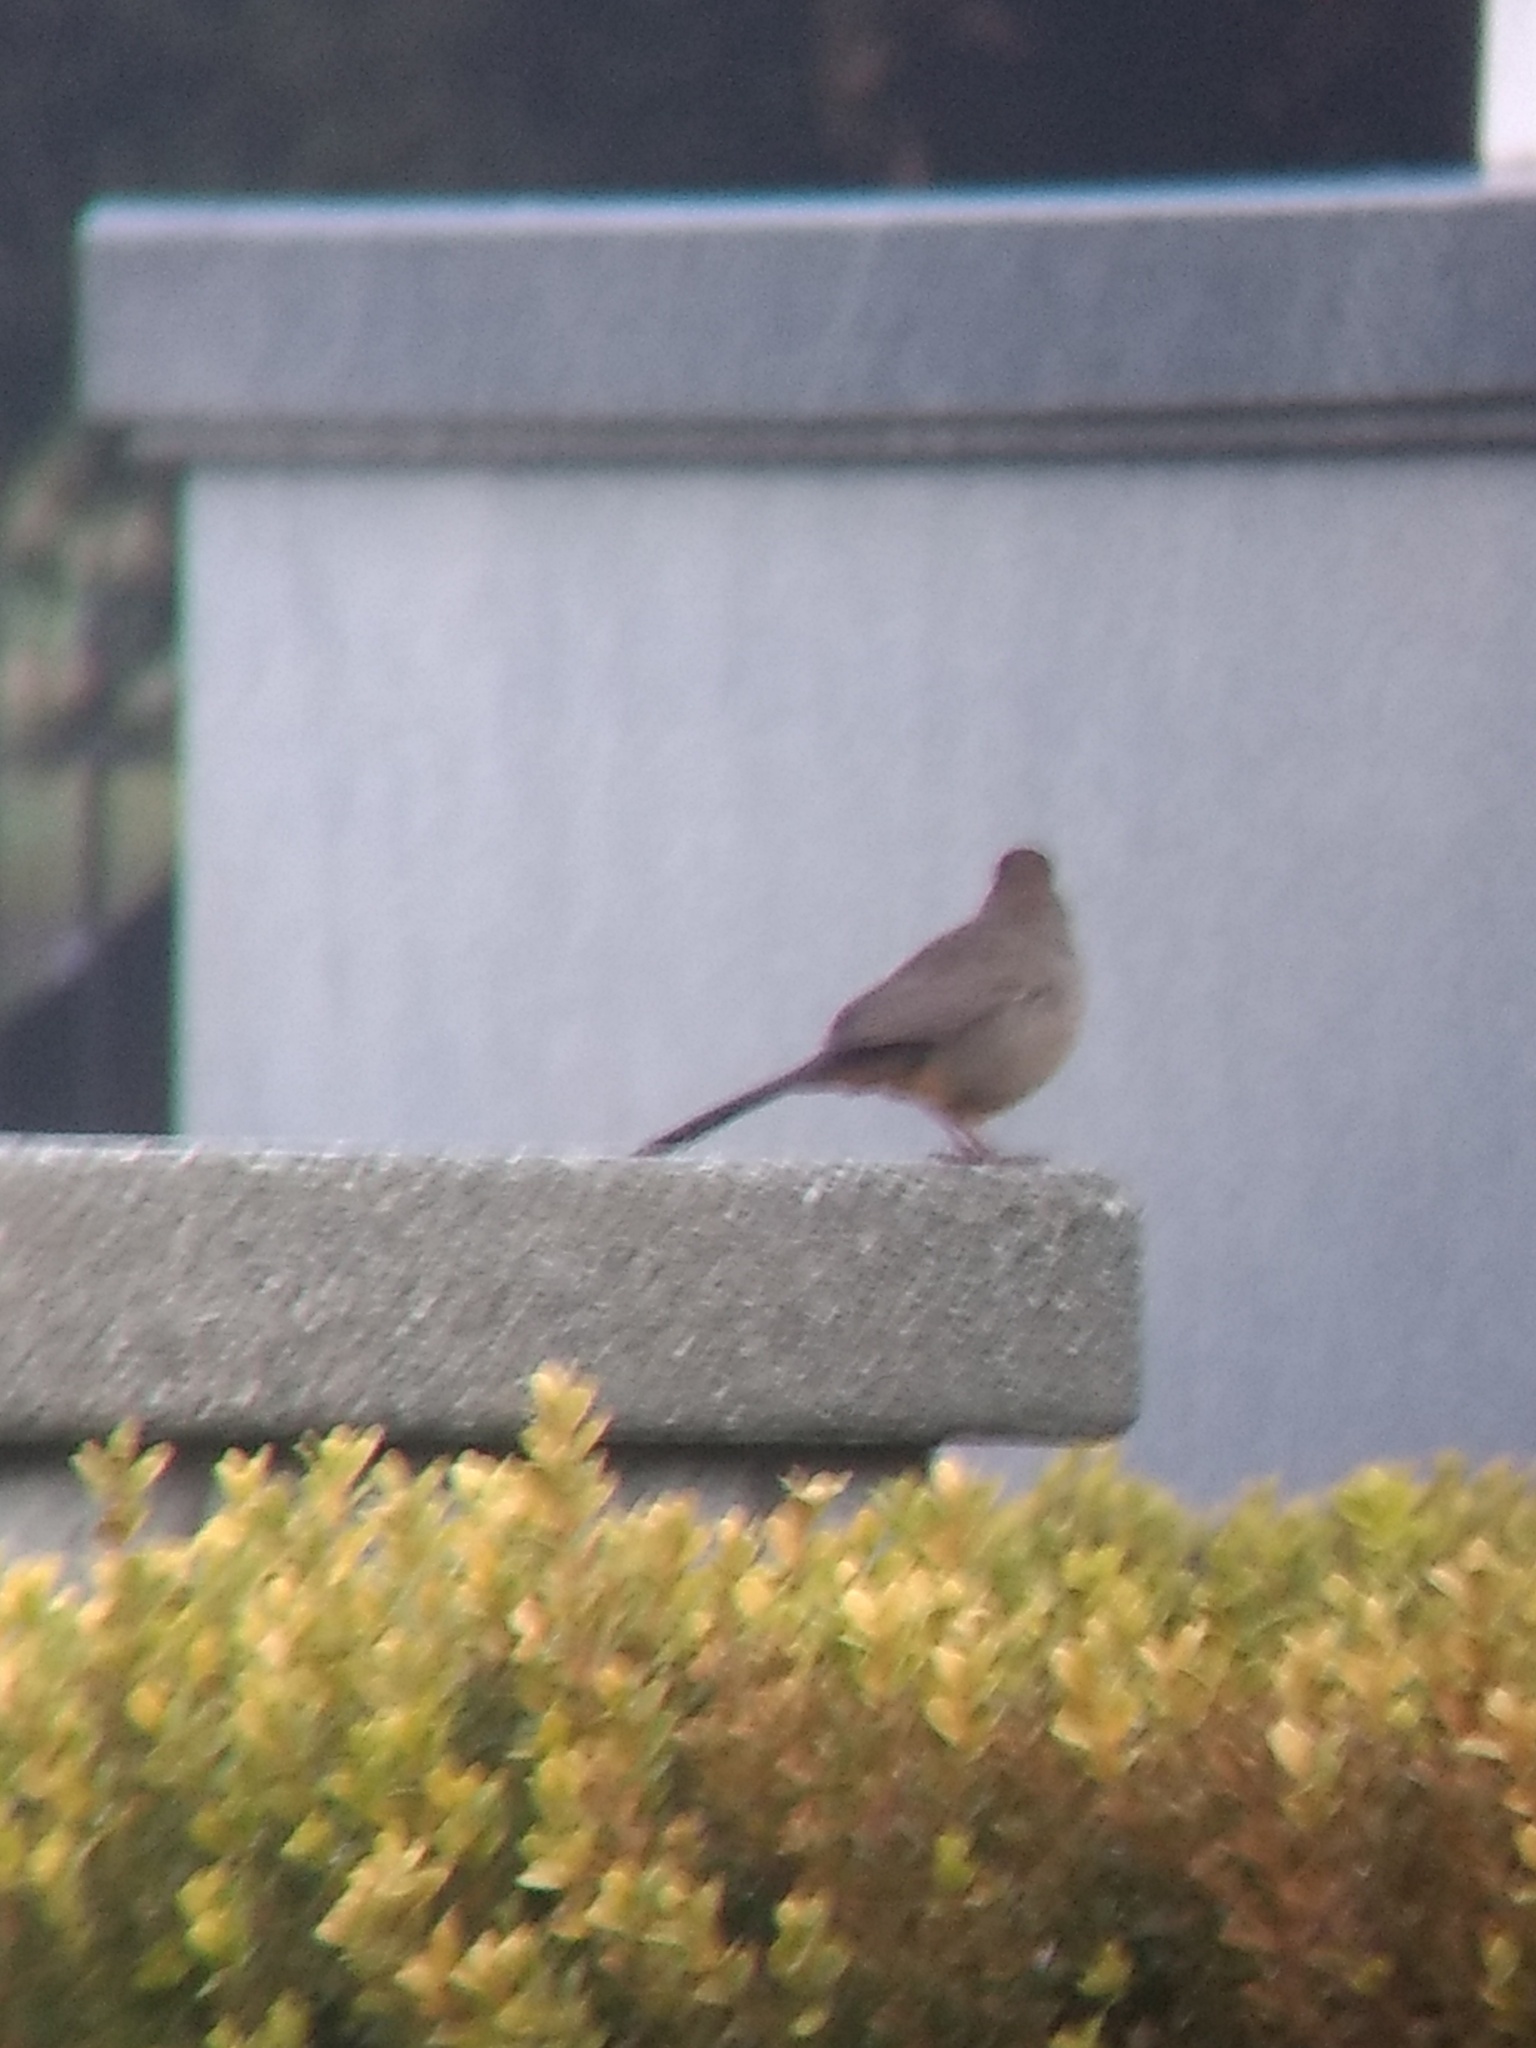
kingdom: Animalia
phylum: Chordata
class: Aves
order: Passeriformes
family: Passerellidae
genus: Melozone
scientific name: Melozone crissalis
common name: California towhee
